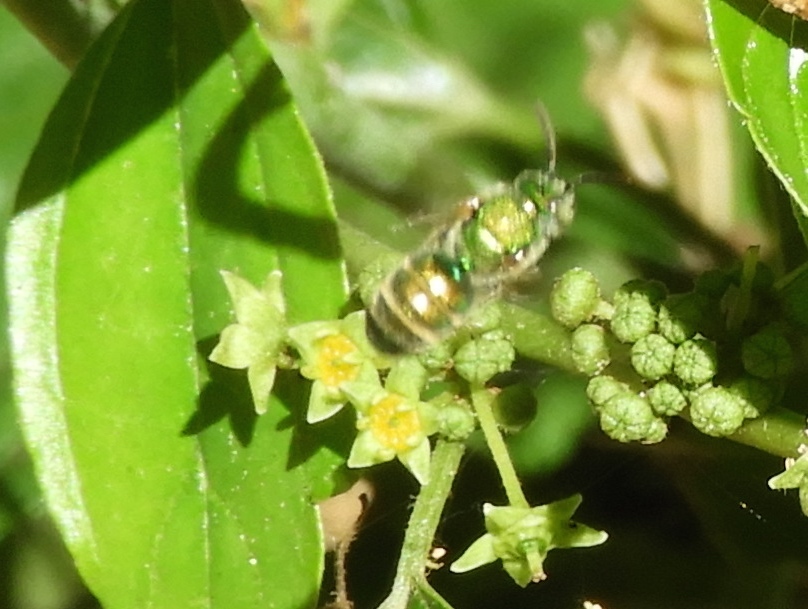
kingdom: Animalia
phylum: Arthropoda
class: Insecta
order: Hymenoptera
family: Halictidae
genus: Augochloropsis
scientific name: Augochloropsis
